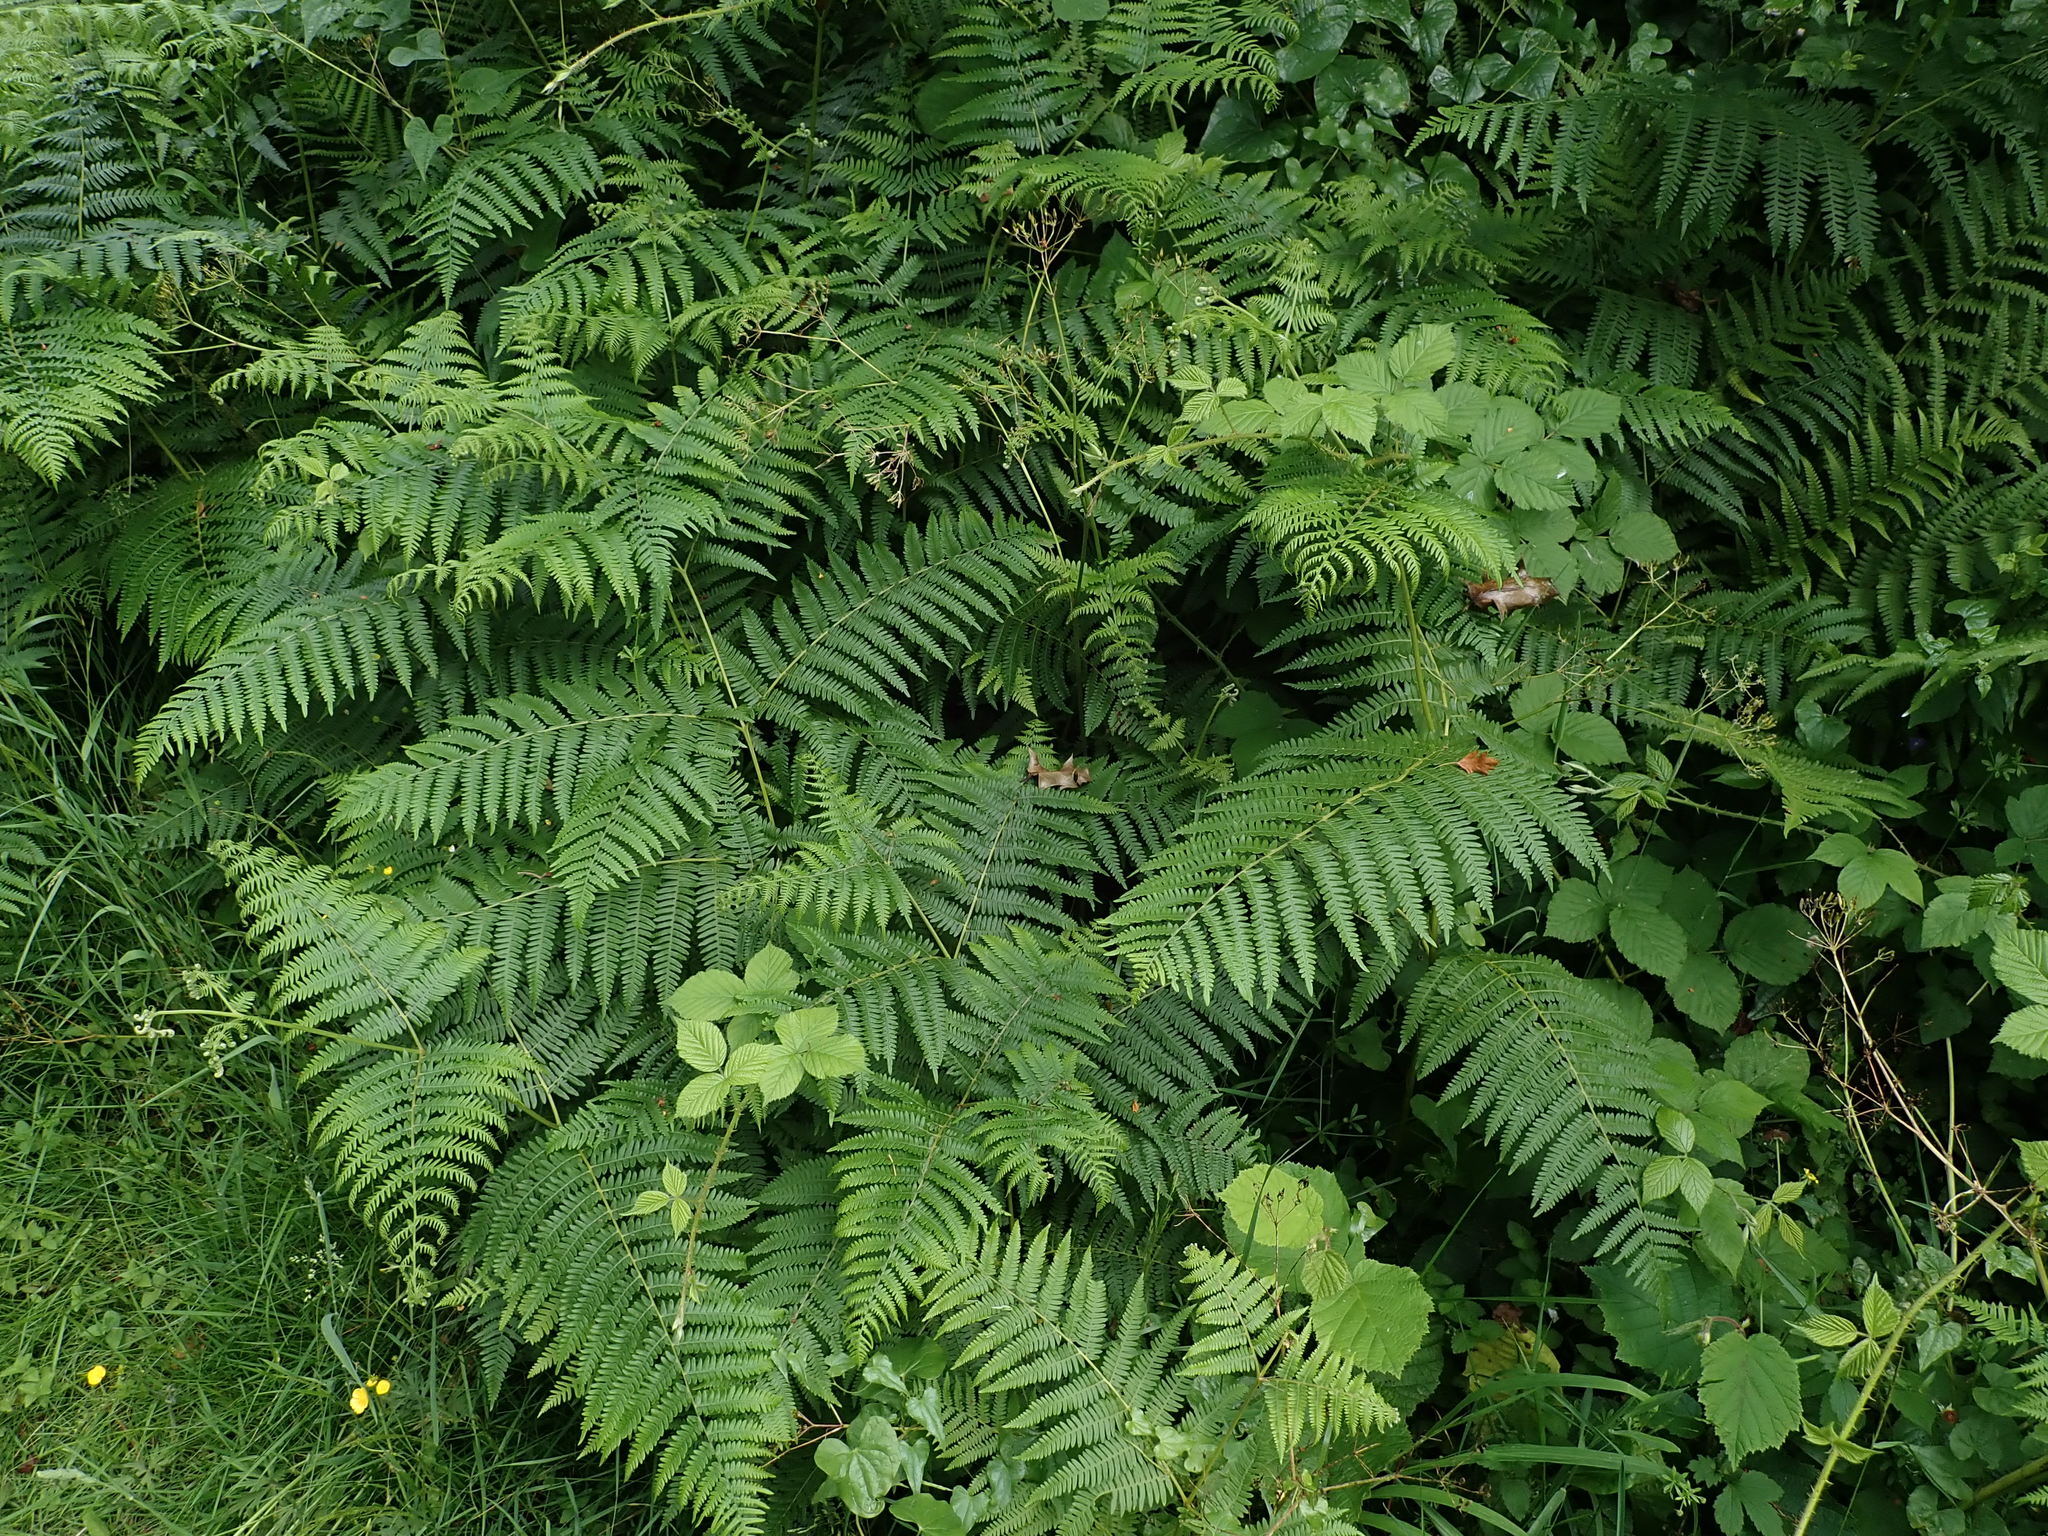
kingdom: Plantae
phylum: Tracheophyta
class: Polypodiopsida
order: Polypodiales
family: Dennstaedtiaceae
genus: Pteridium
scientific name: Pteridium aquilinum
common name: Bracken
